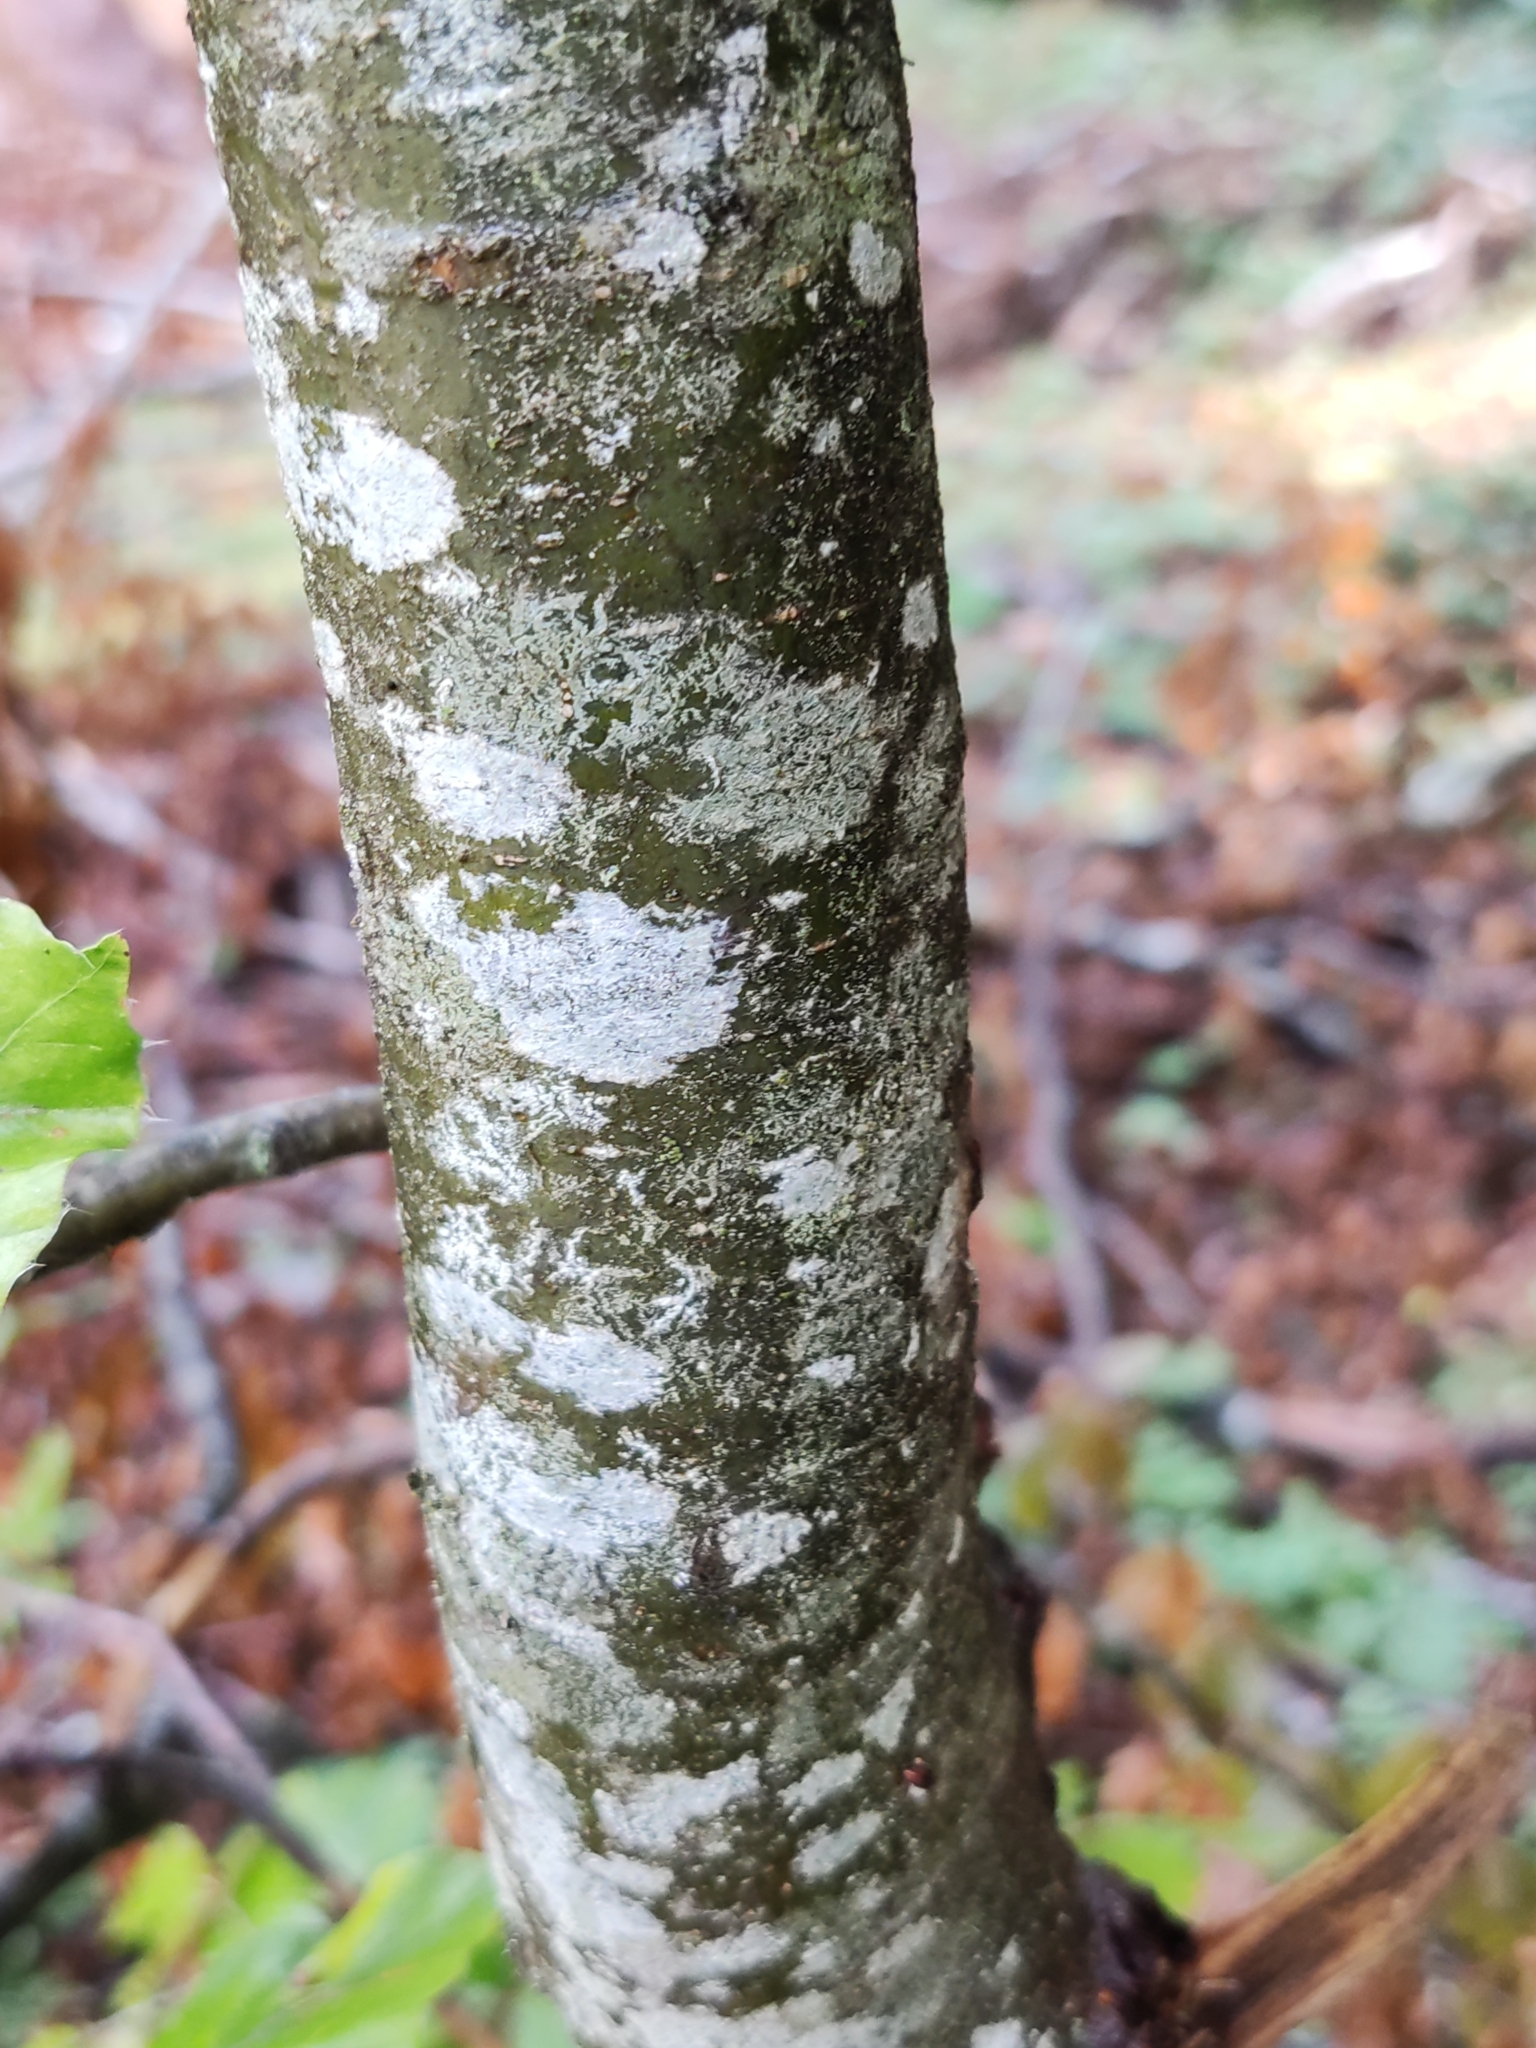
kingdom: Plantae
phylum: Tracheophyta
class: Magnoliopsida
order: Fagales
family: Fagaceae
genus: Fagus
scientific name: Fagus sylvatica
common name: Beech
